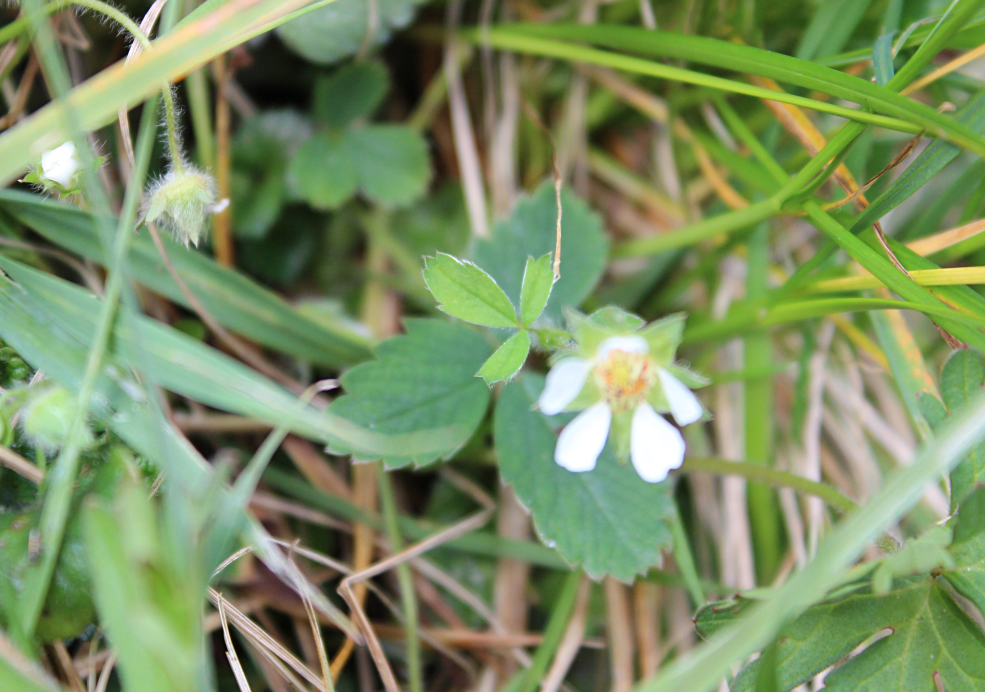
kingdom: Plantae
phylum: Tracheophyta
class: Magnoliopsida
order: Rosales
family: Rosaceae
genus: Potentilla
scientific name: Potentilla sterilis
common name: Barren strawberry
